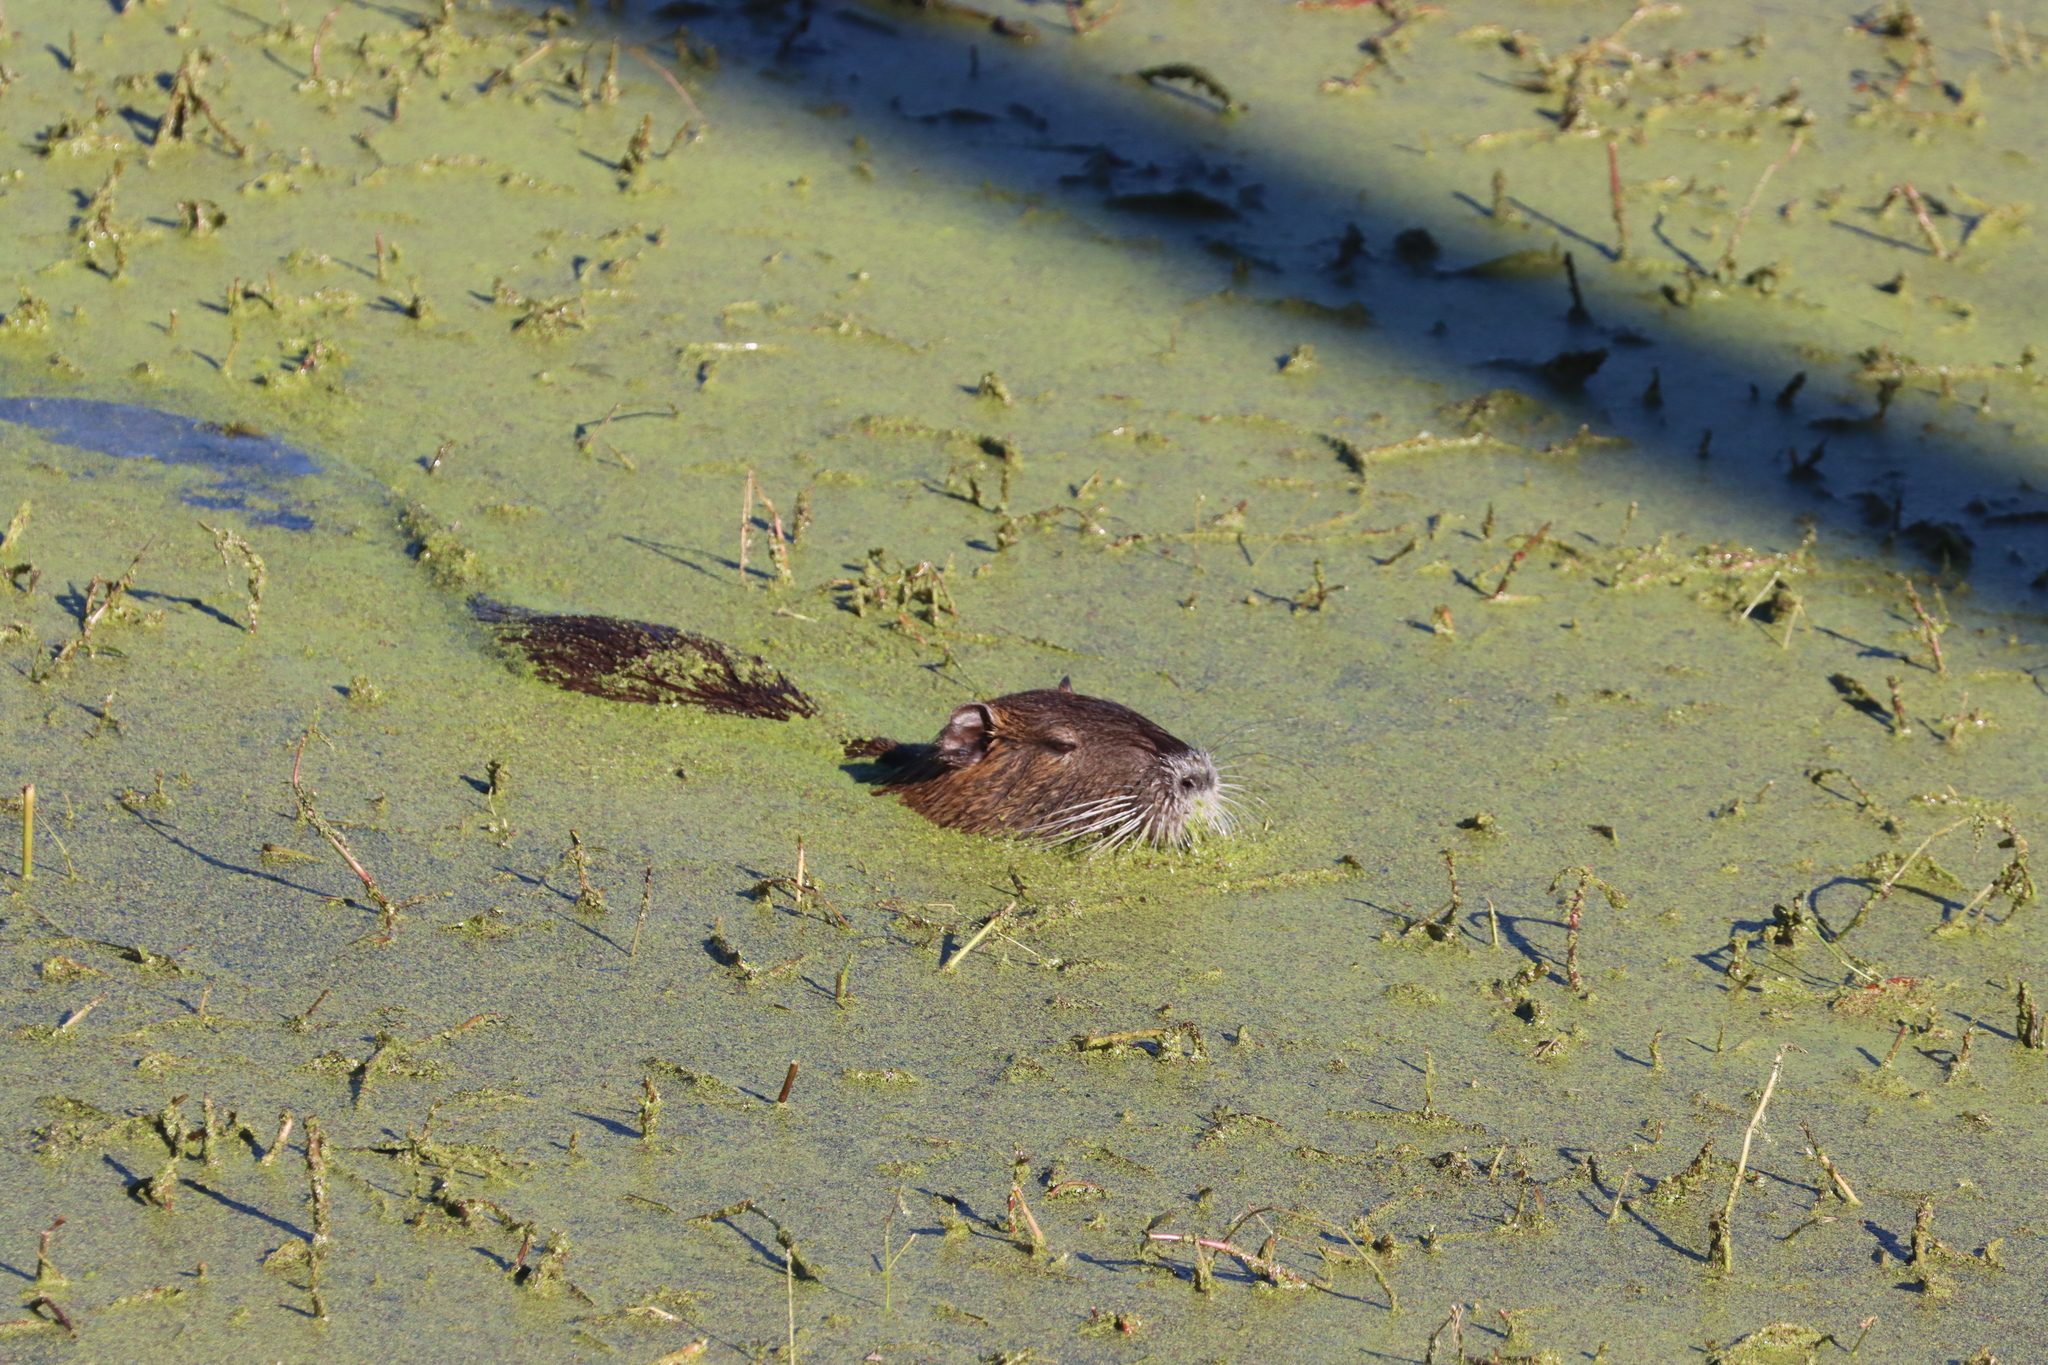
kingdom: Animalia
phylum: Chordata
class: Mammalia
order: Rodentia
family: Myocastoridae
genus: Myocastor
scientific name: Myocastor coypus
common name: Coypu
